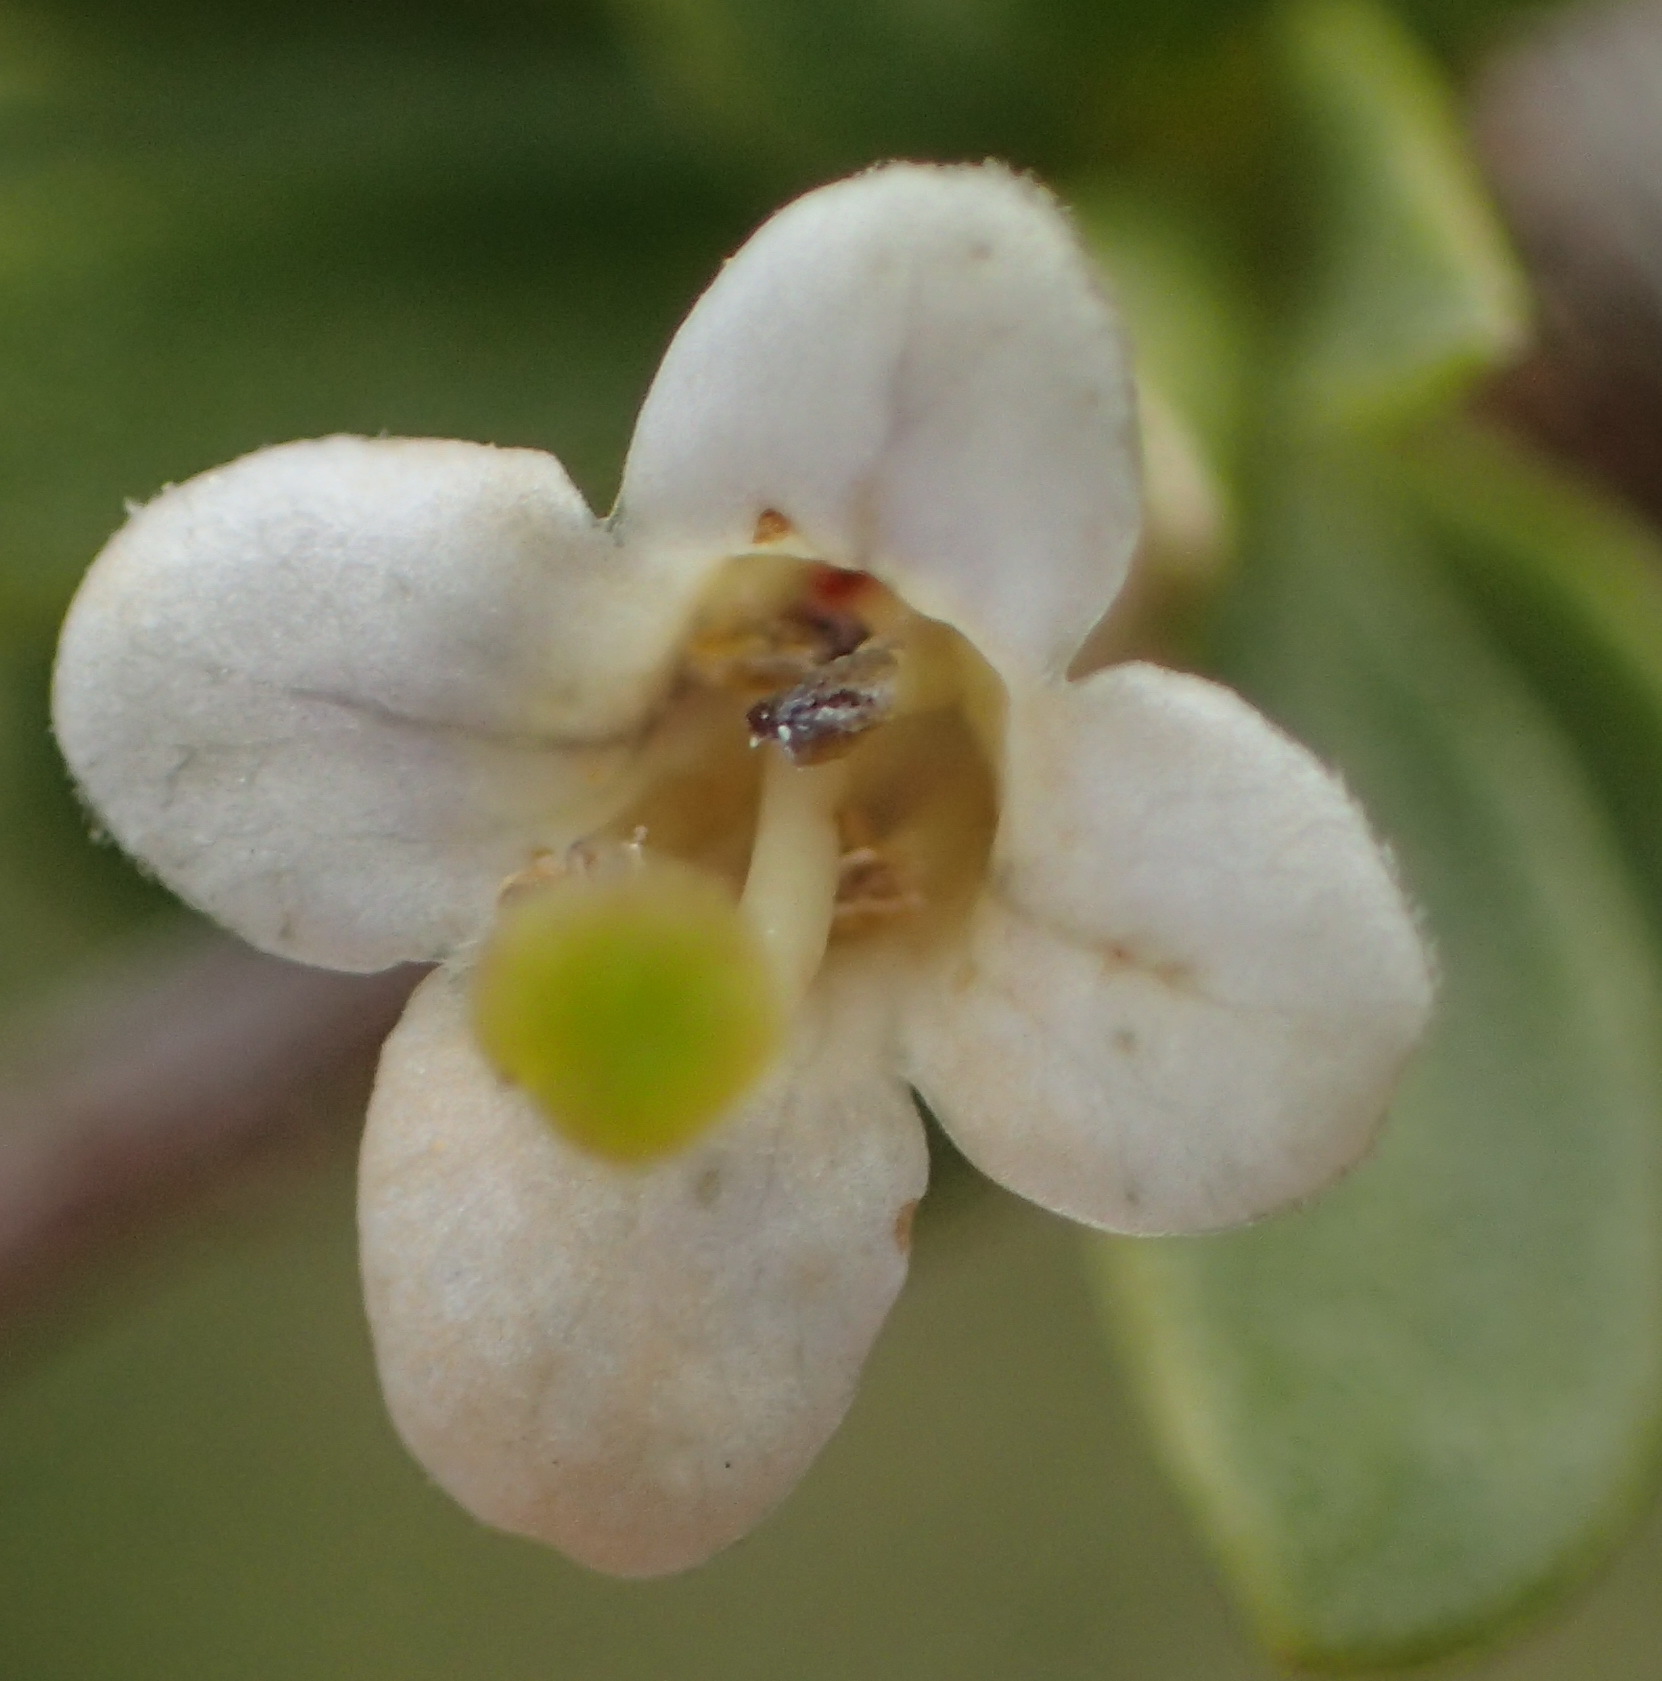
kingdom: Plantae
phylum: Tracheophyta
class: Magnoliopsida
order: Solanales
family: Solanaceae
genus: Lycium
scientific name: Lycium horridum
